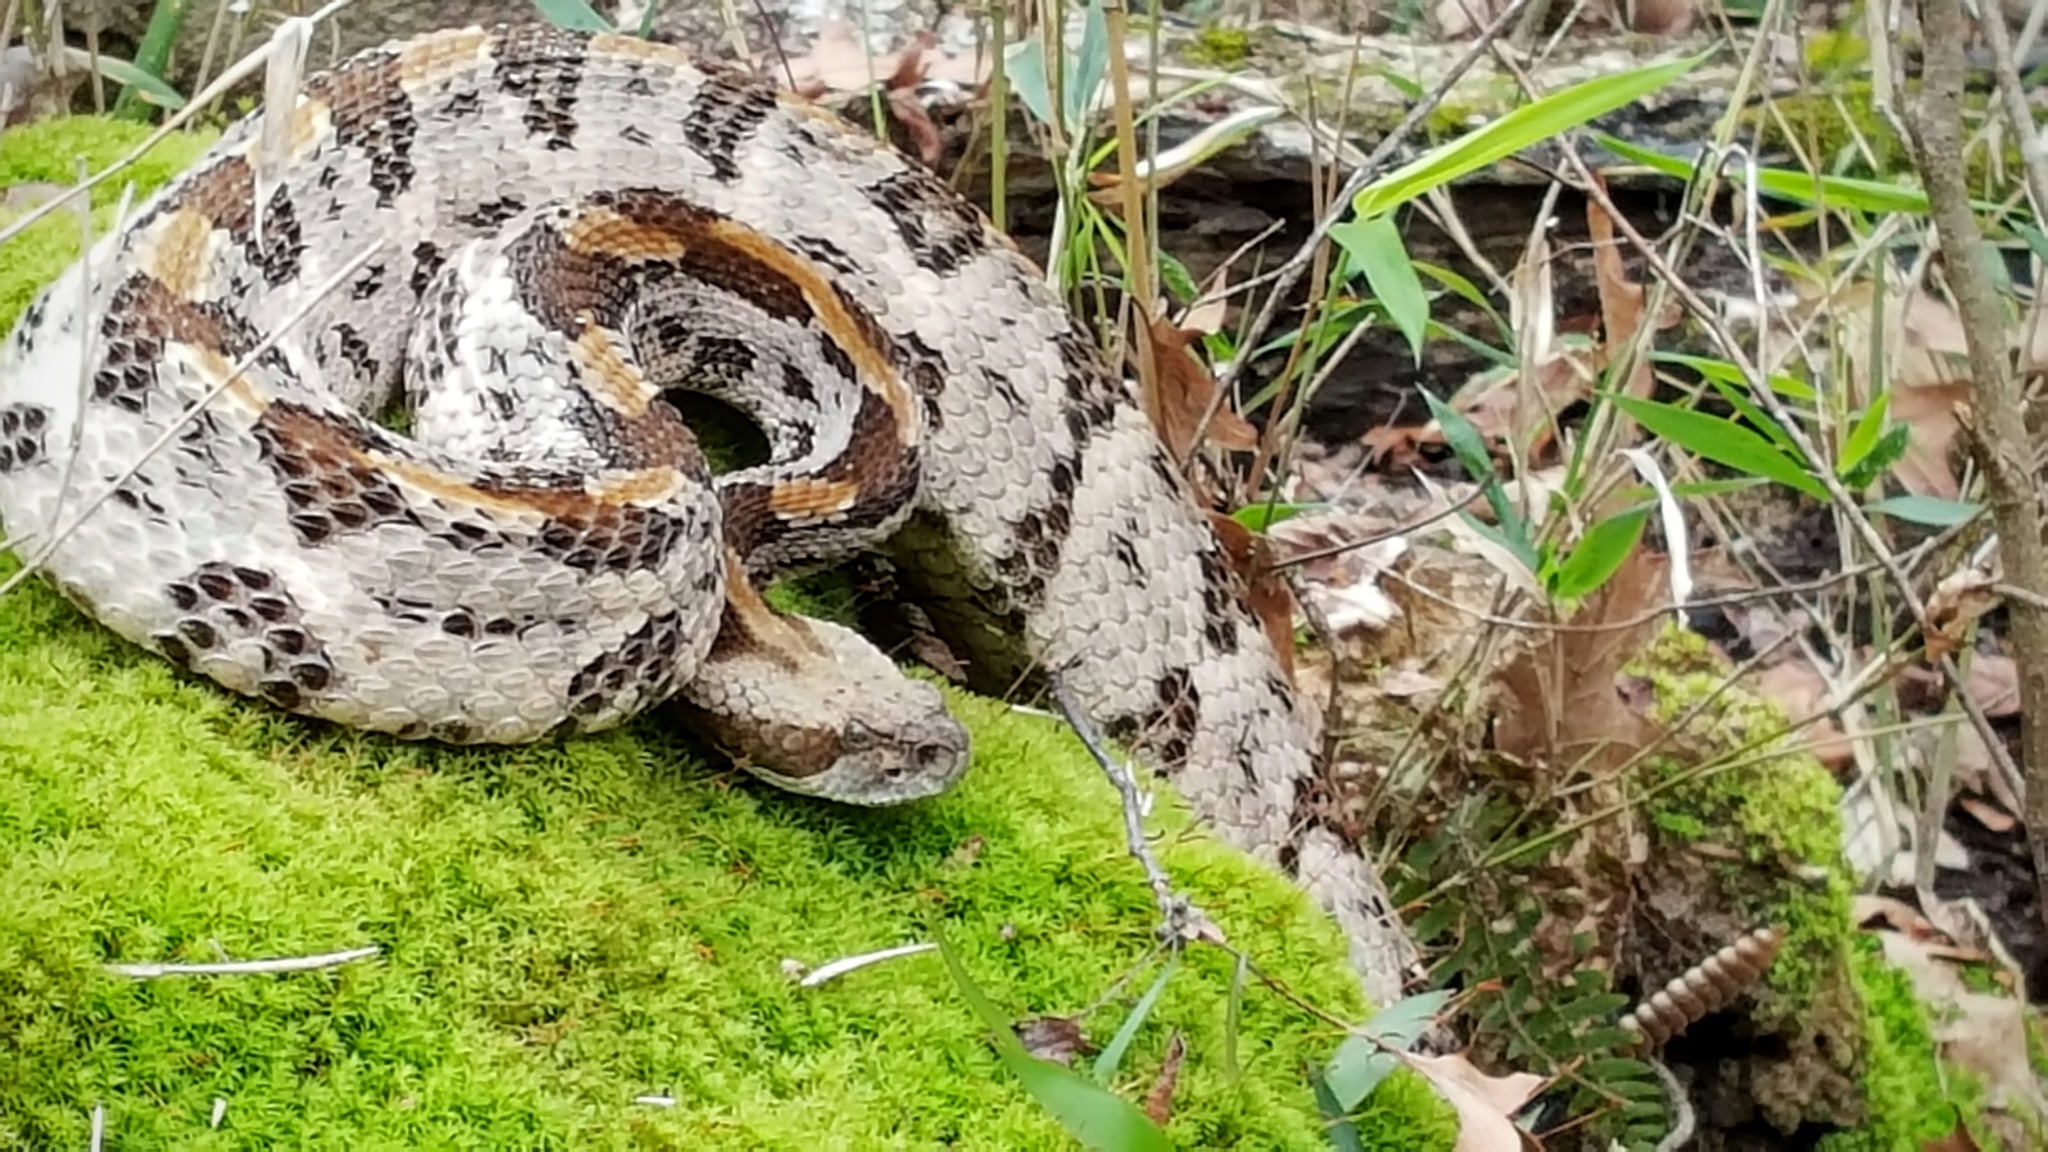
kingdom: Animalia
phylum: Chordata
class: Squamata
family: Viperidae
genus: Crotalus
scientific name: Crotalus horridus
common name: Timber rattlesnake
